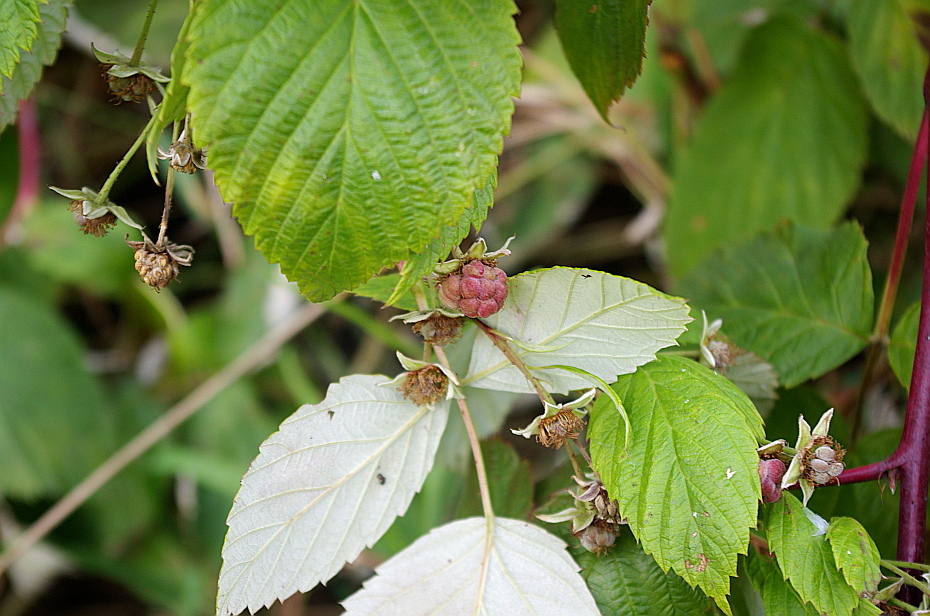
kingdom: Plantae
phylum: Tracheophyta
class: Magnoliopsida
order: Rosales
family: Rosaceae
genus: Rubus
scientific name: Rubus idaeus
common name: Raspberry
